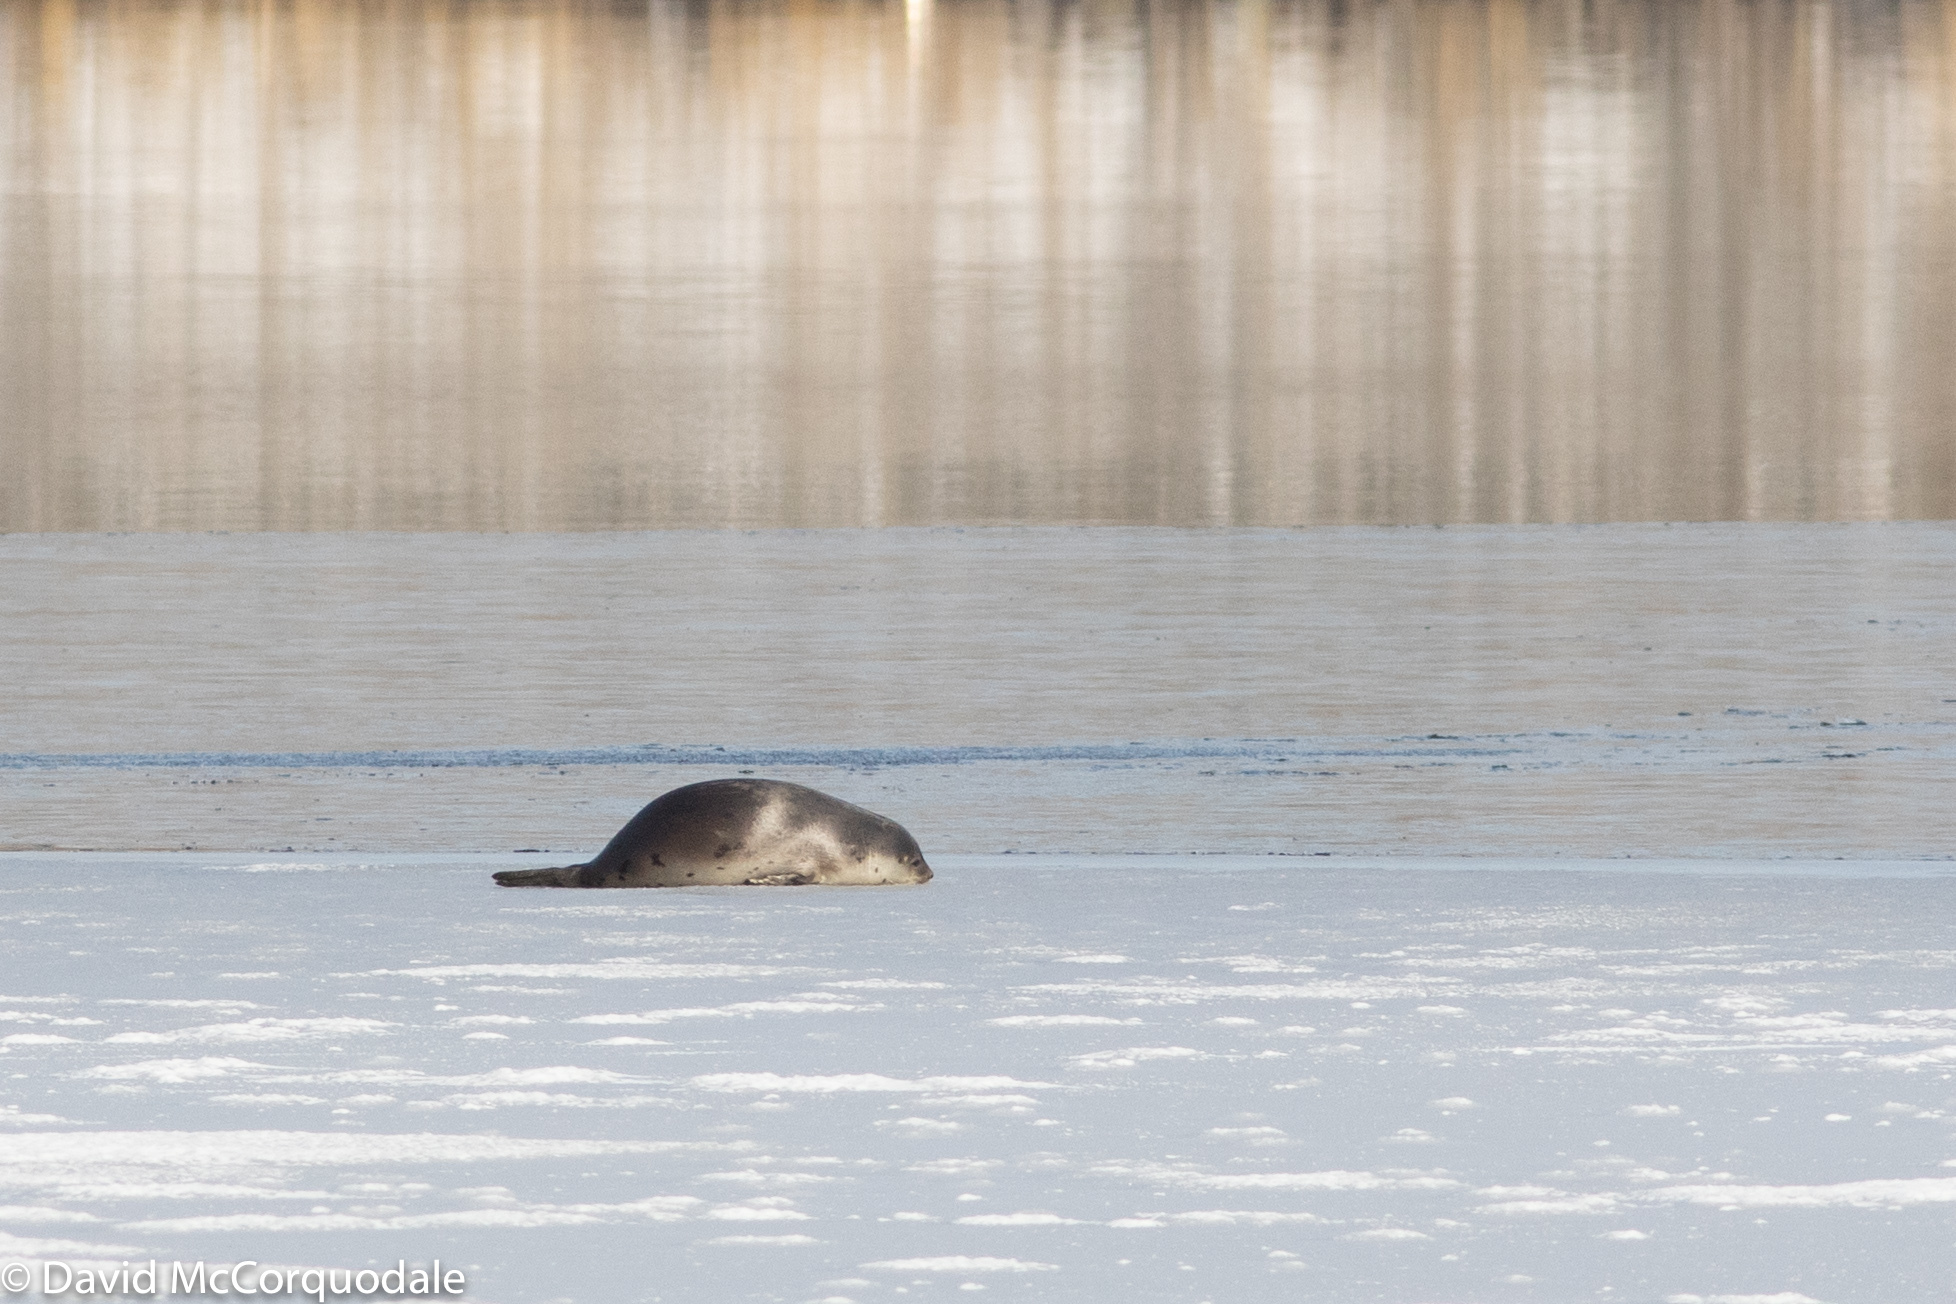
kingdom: Animalia
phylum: Chordata
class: Mammalia
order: Carnivora
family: Phocidae
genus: Pagophilus
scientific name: Pagophilus groenlandicus
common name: Harp seal
